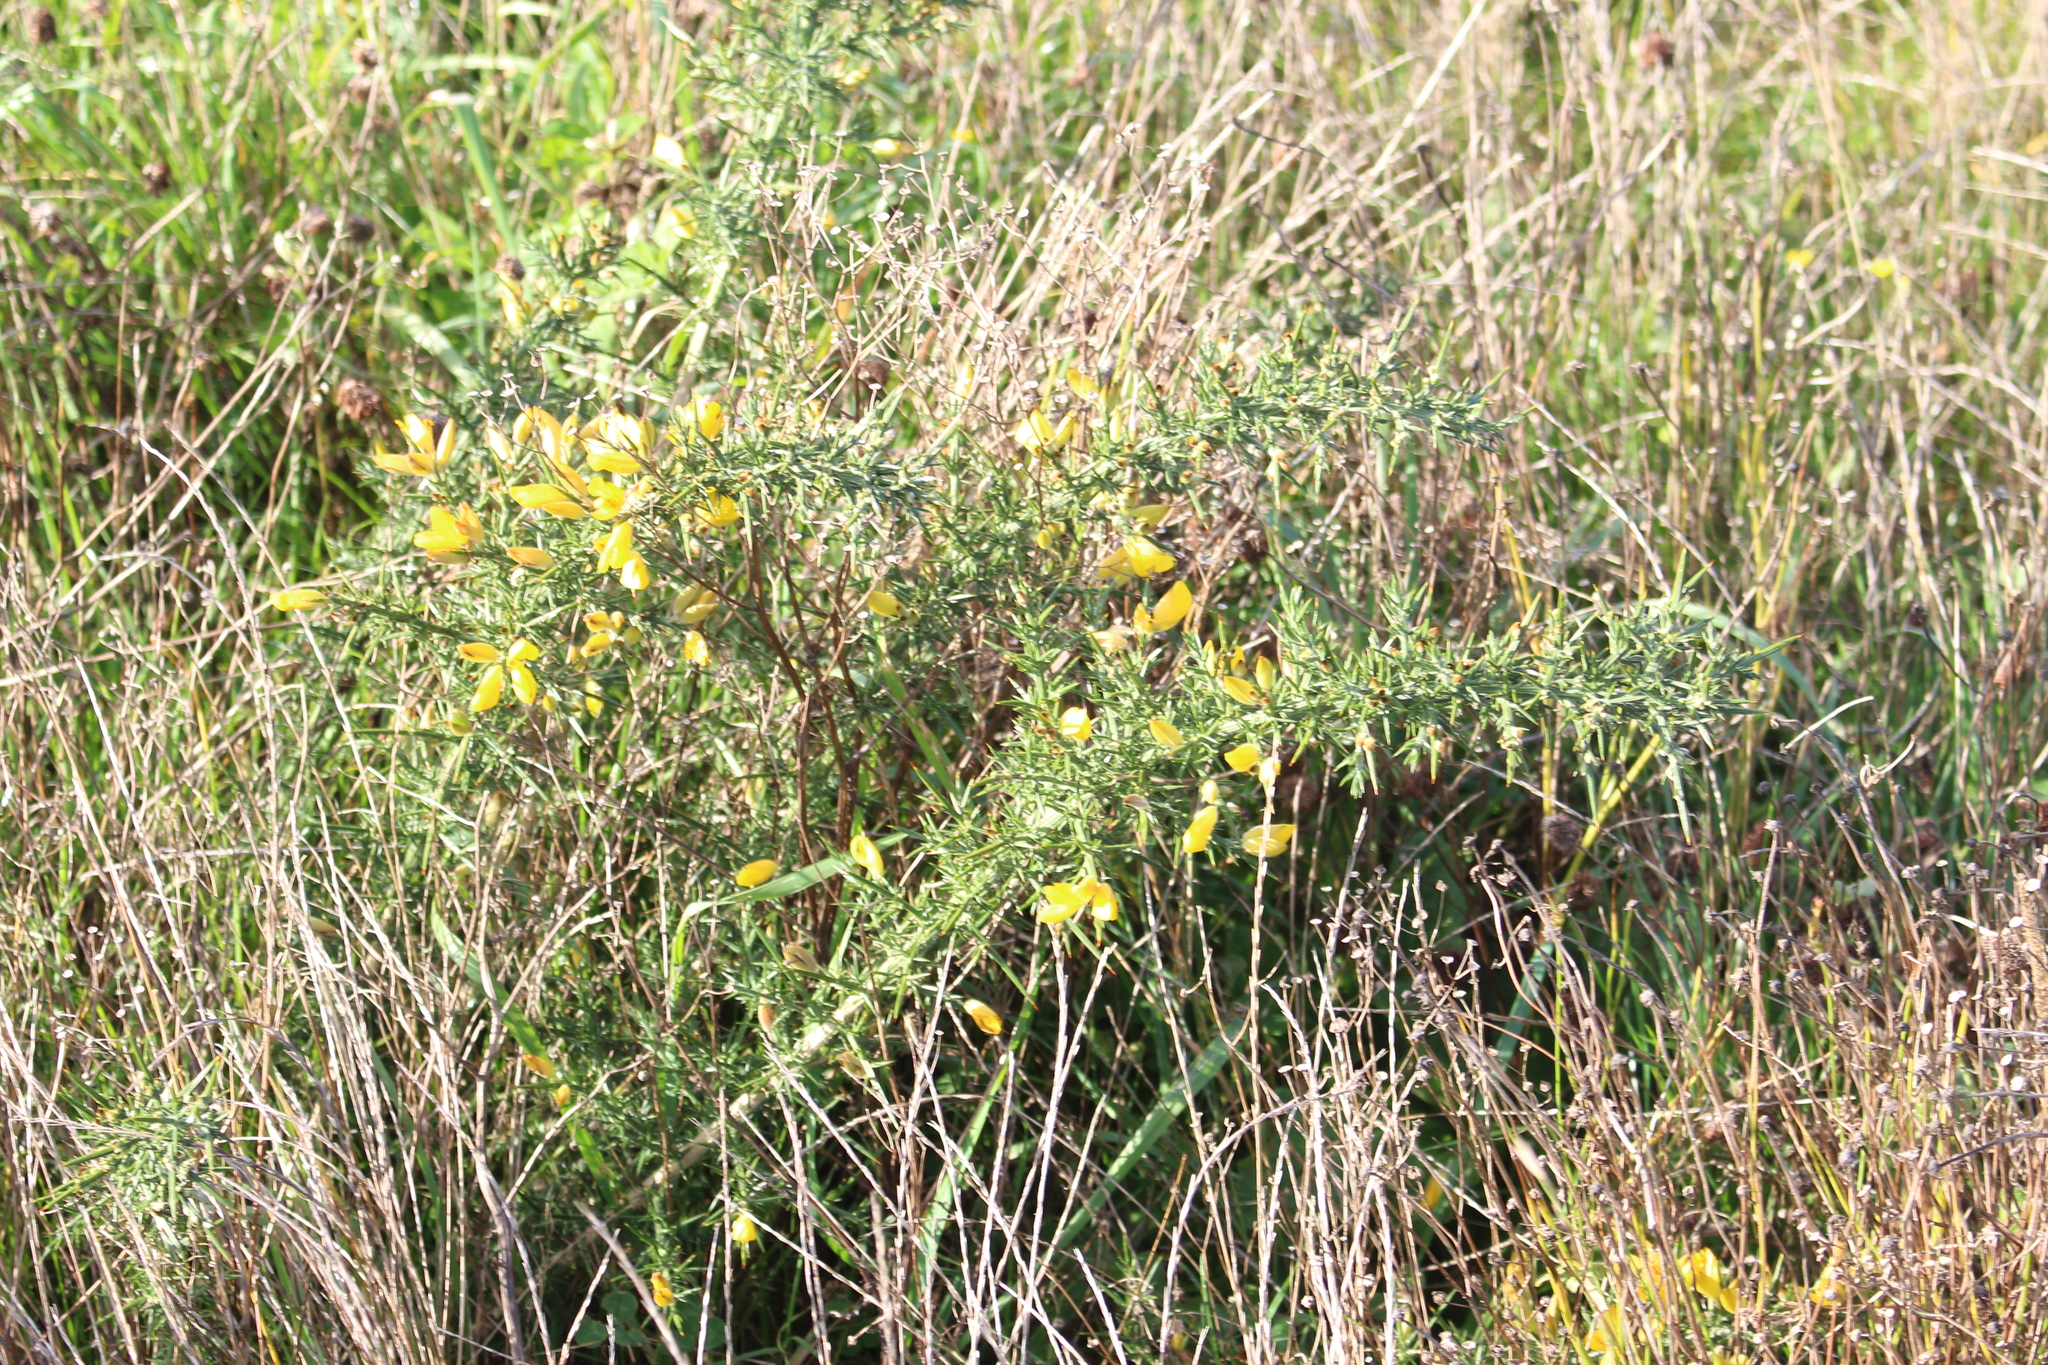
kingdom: Plantae
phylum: Tracheophyta
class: Magnoliopsida
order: Fabales
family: Fabaceae
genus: Ulex
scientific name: Ulex europaeus
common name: Common gorse
